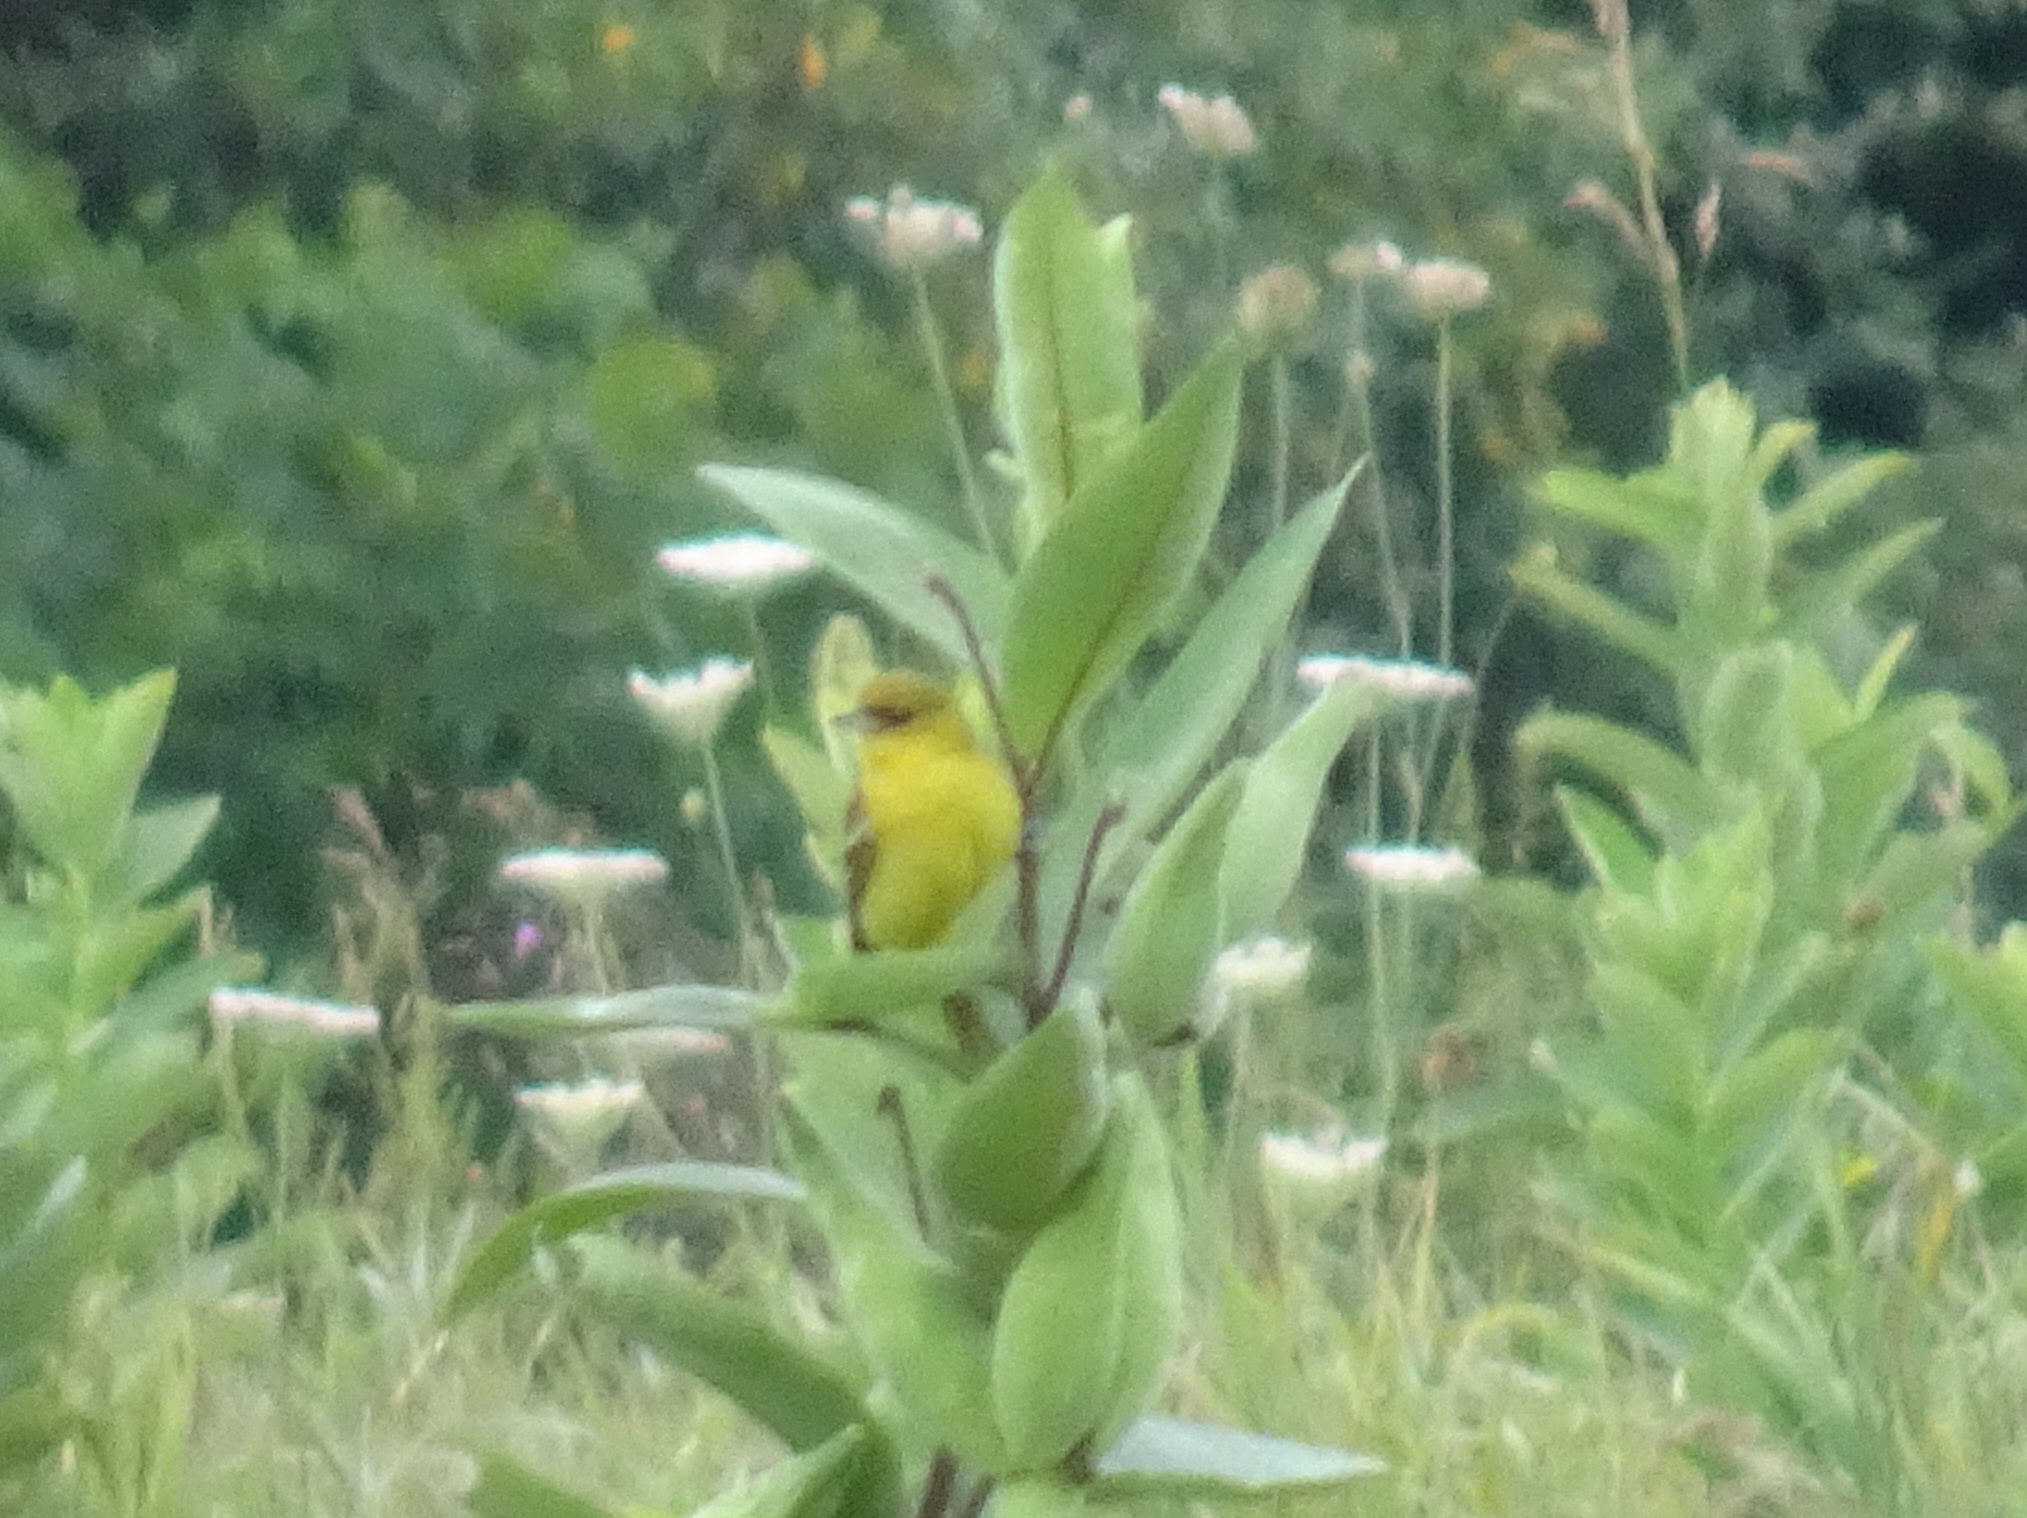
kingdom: Animalia
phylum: Chordata
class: Aves
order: Passeriformes
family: Icteridae
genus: Icterus
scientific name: Icterus spurius
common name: Orchard oriole
